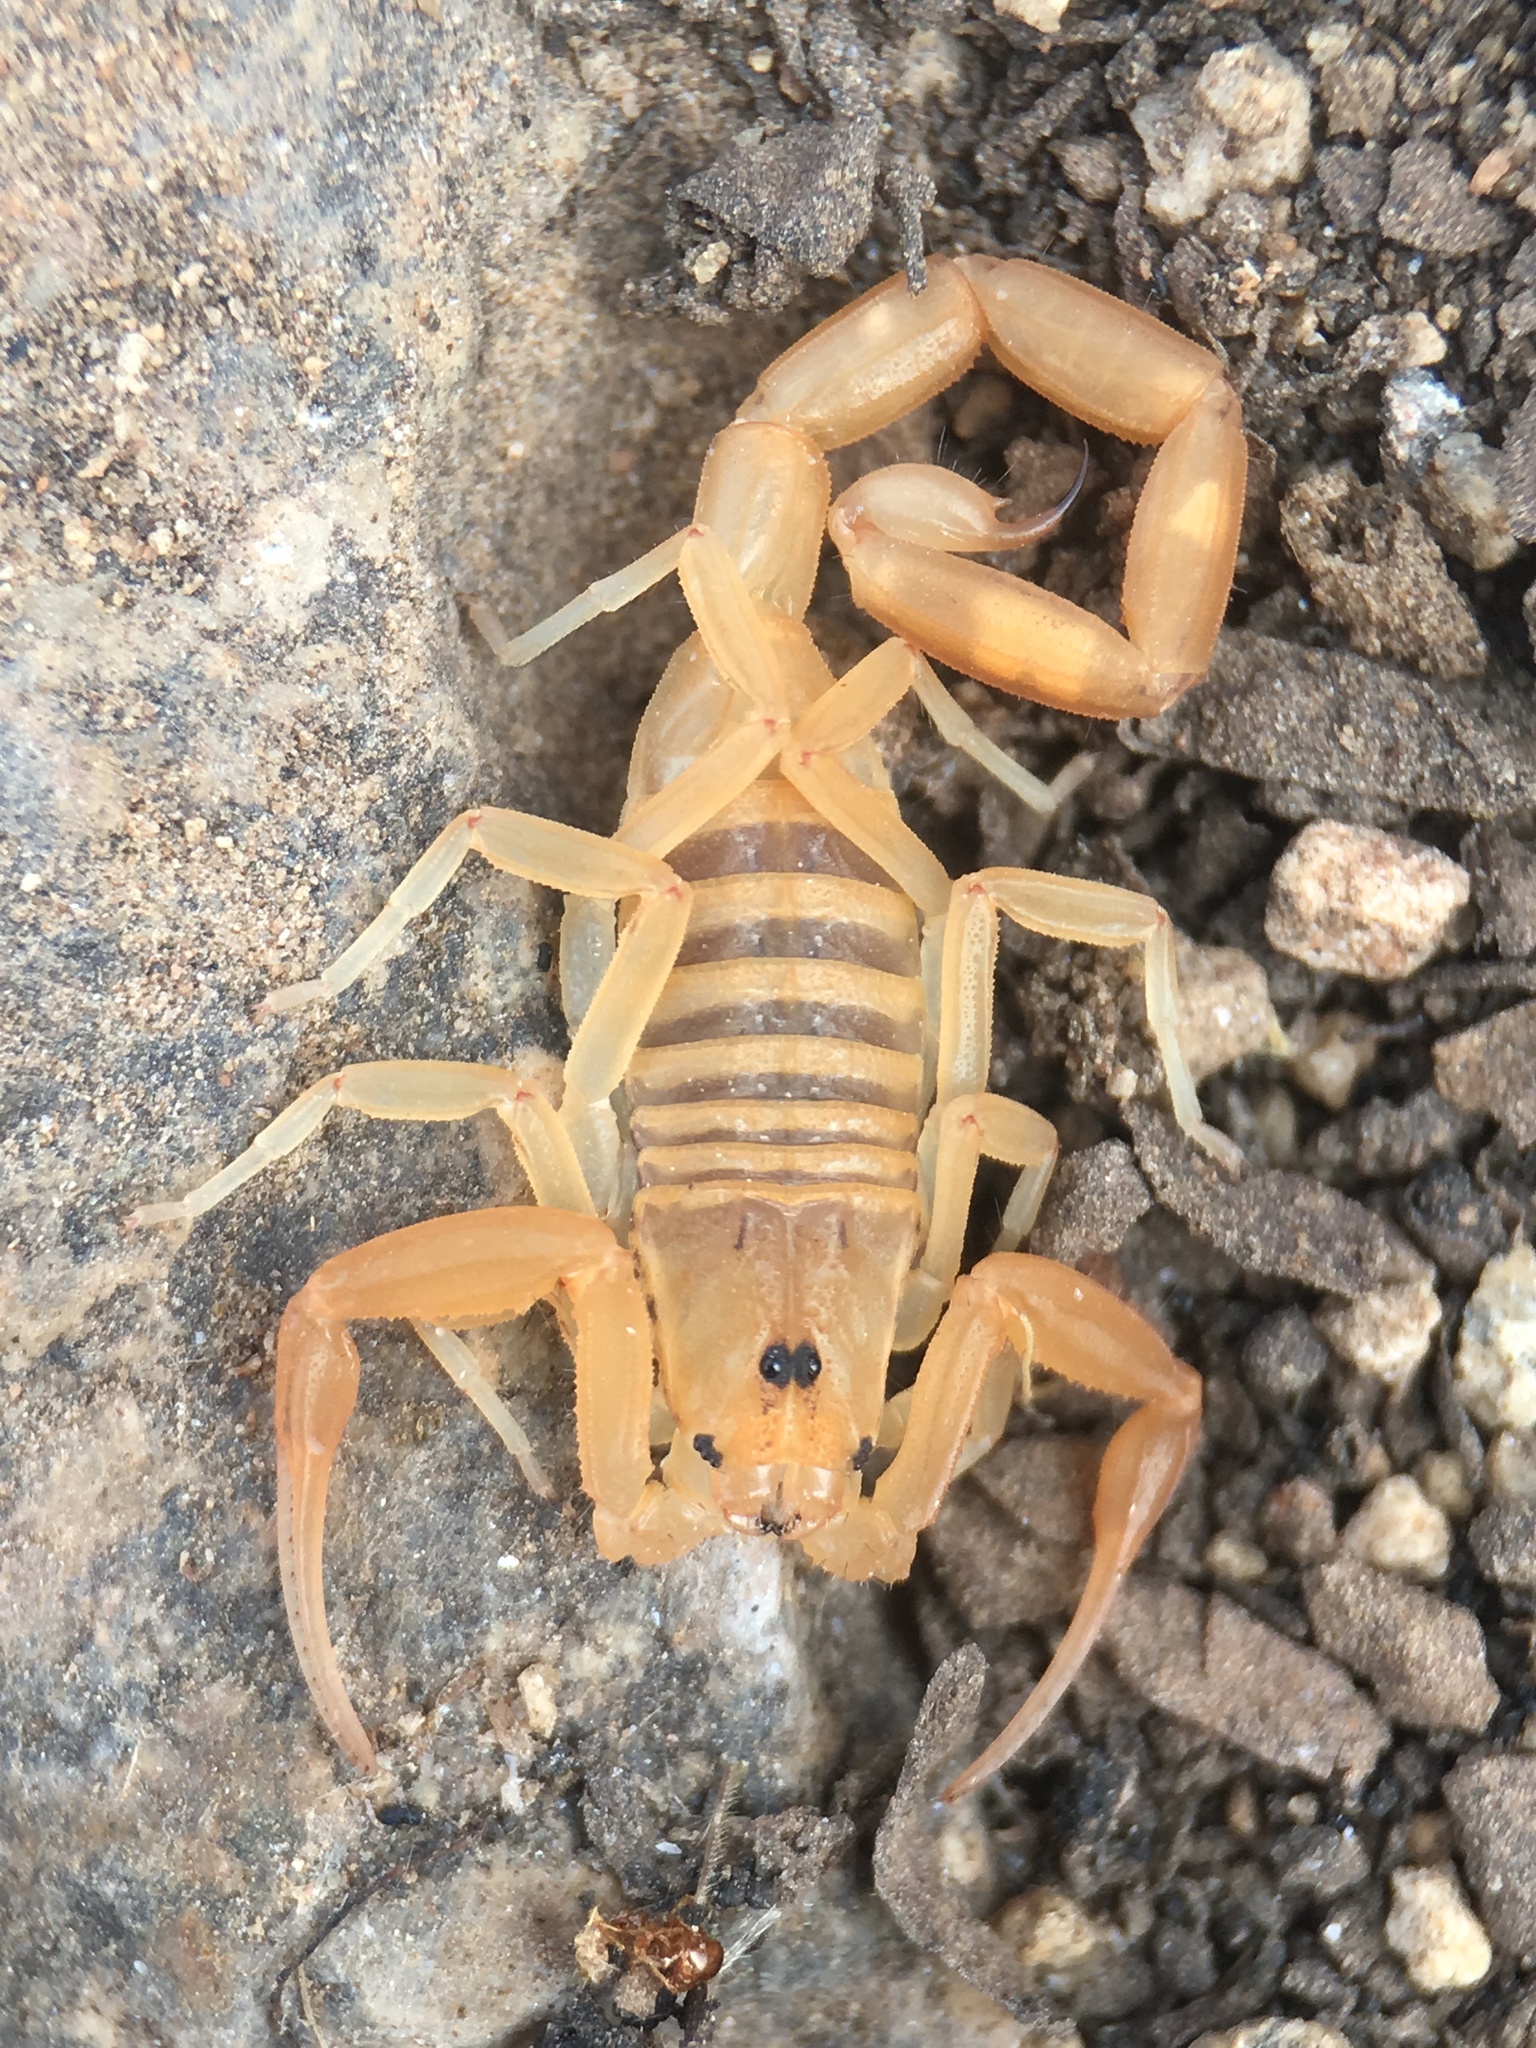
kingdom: Animalia
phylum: Arthropoda
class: Arachnida
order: Scorpiones
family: Buthidae
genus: Centruroides
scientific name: Centruroides sculpturatus
